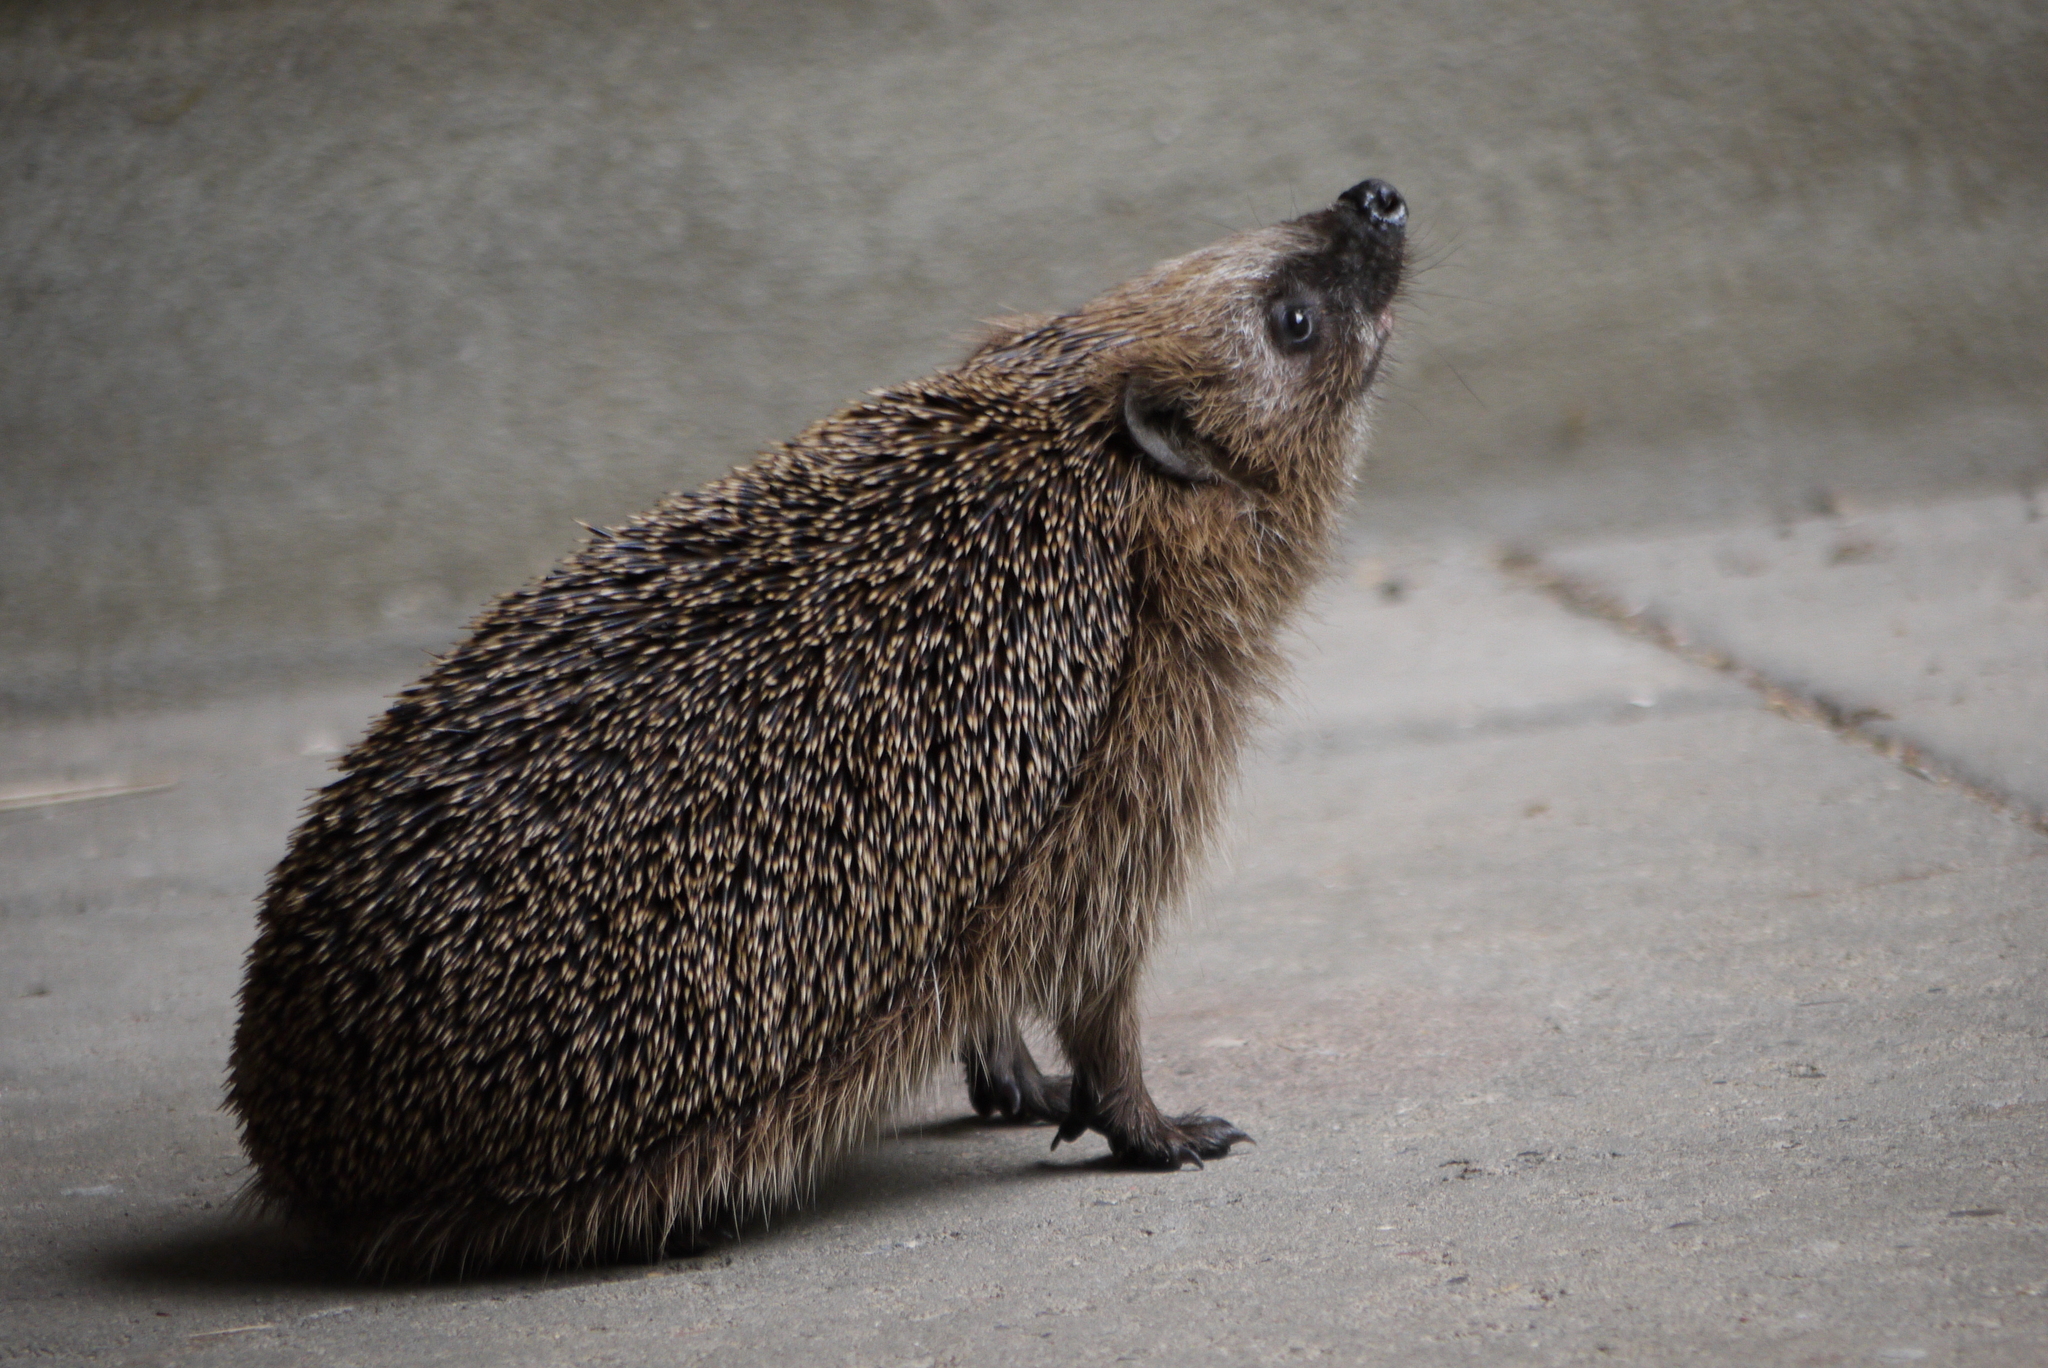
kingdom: Animalia
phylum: Chordata
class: Mammalia
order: Erinaceomorpha
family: Erinaceidae
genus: Erinaceus
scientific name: Erinaceus europaeus
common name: West european hedgehog
